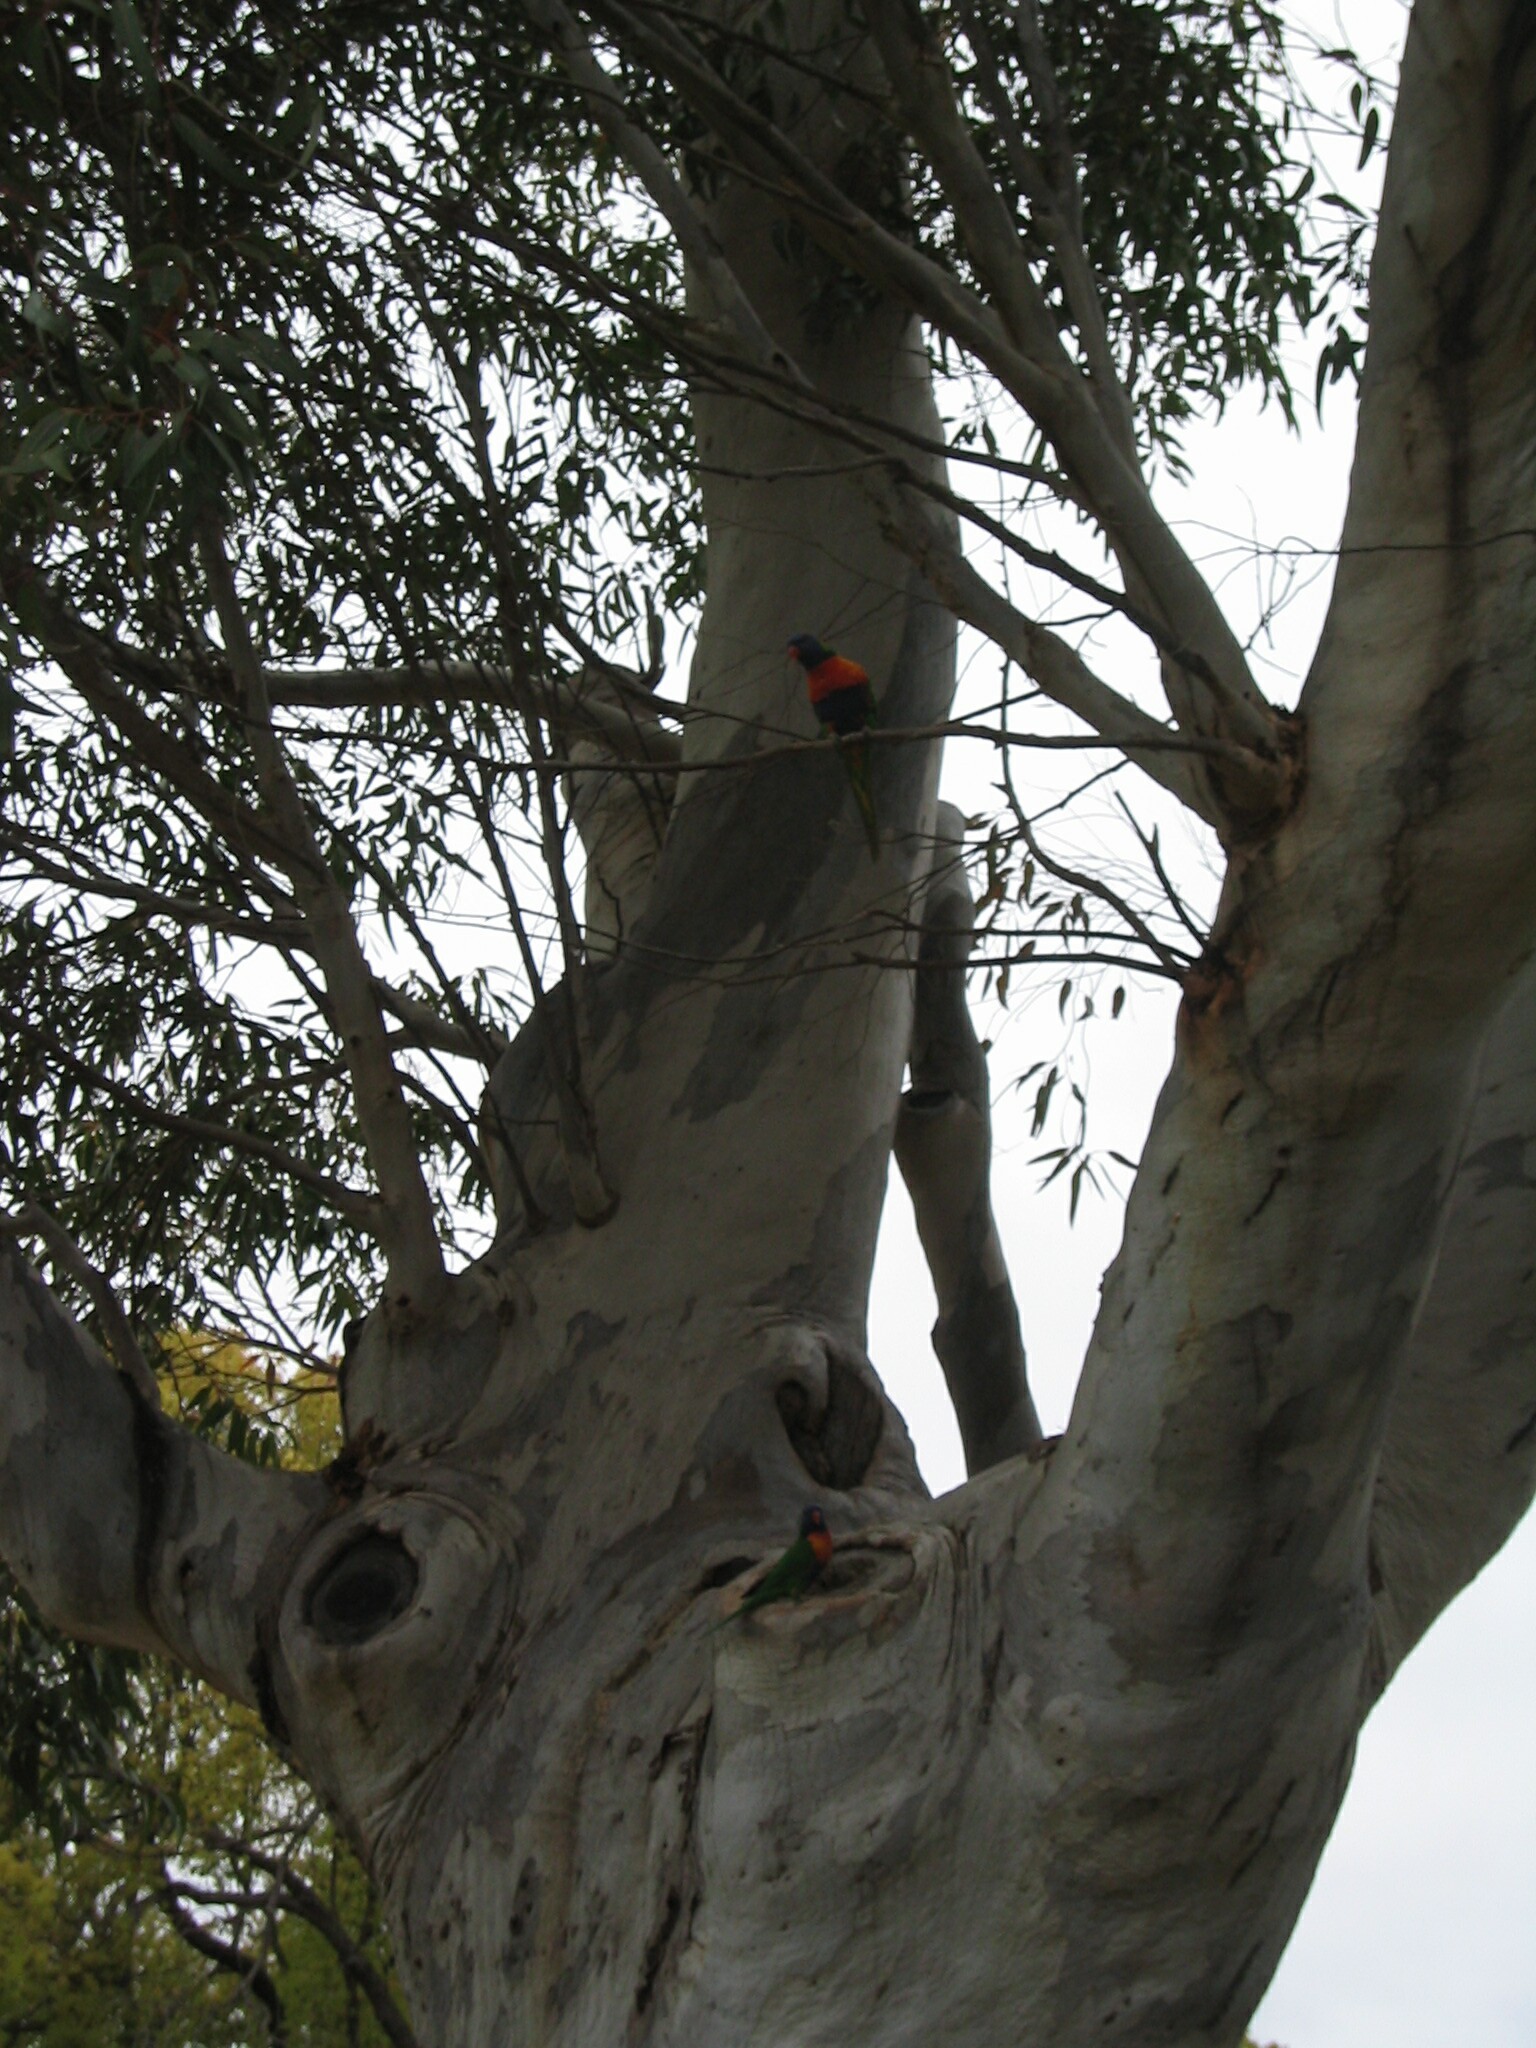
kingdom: Animalia
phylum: Chordata
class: Aves
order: Psittaciformes
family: Psittacidae
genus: Trichoglossus
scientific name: Trichoglossus haematodus
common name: Coconut lorikeet
